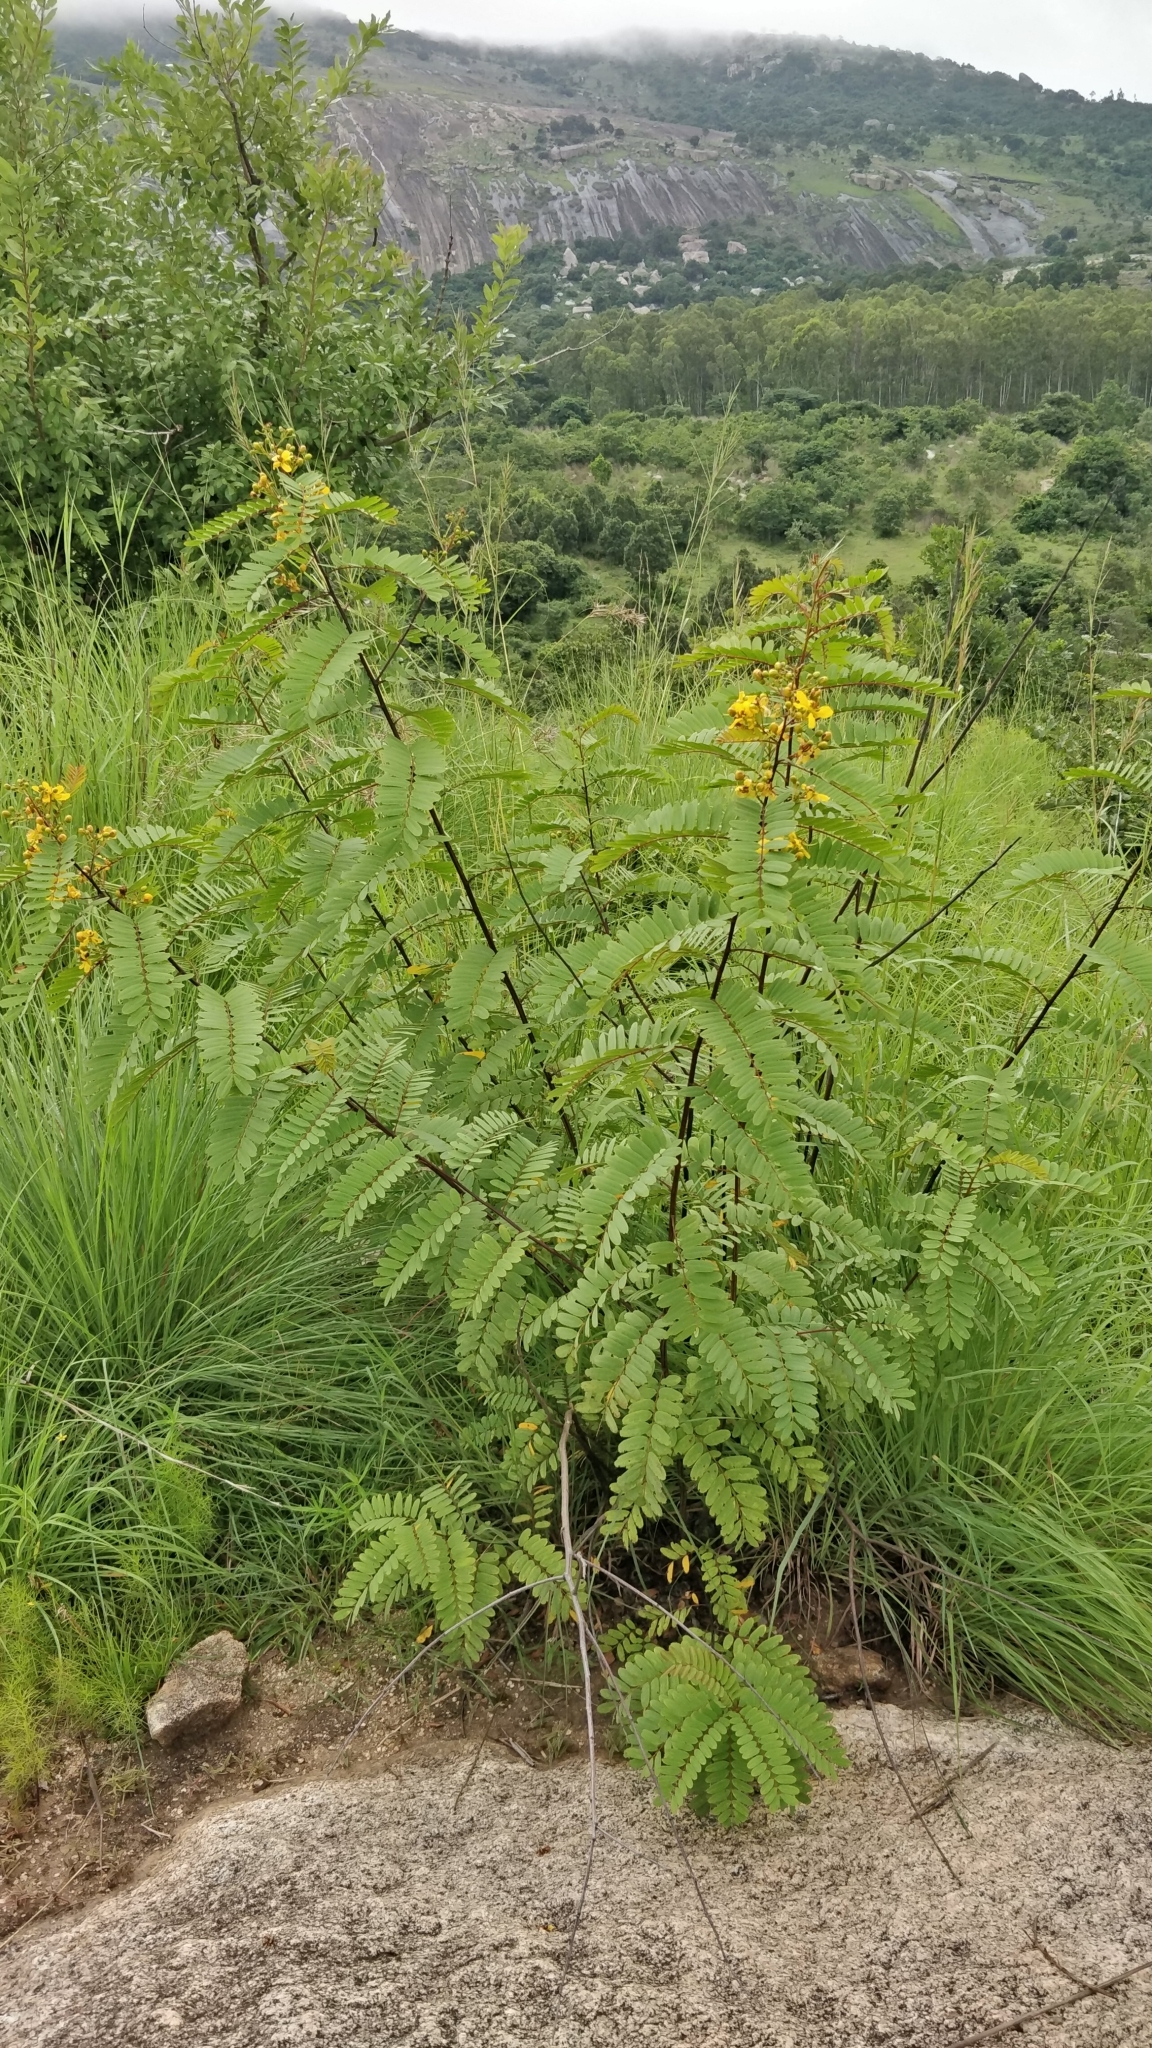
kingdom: Plantae
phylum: Tracheophyta
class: Magnoliopsida
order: Fabales
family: Fabaceae
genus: Senna
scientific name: Senna montana
